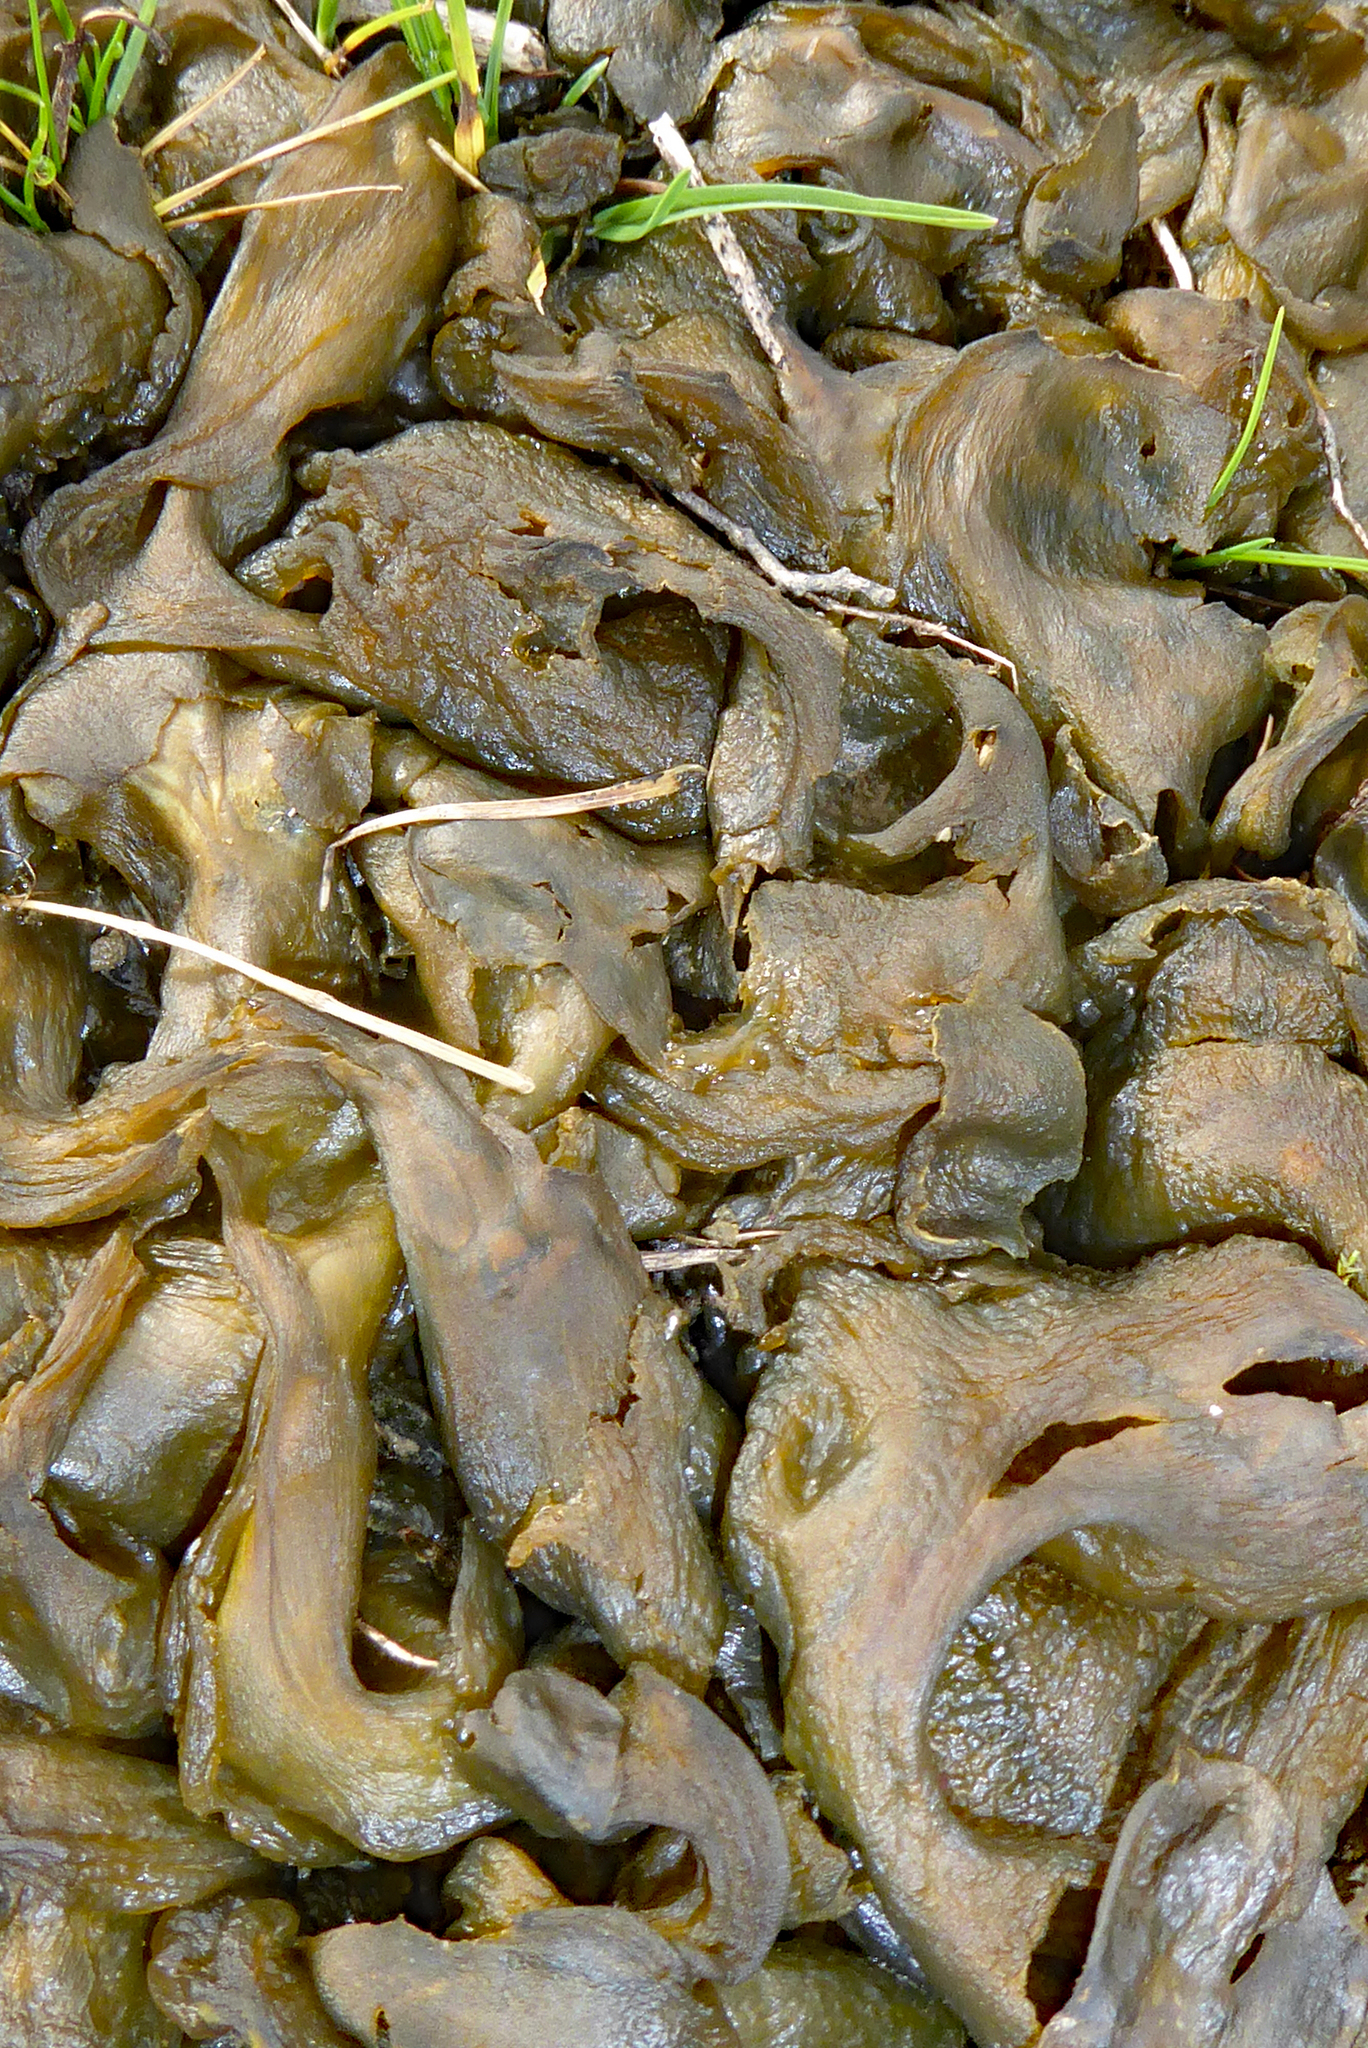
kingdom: Bacteria
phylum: Cyanobacteria
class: Cyanobacteriia
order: Cyanobacteriales
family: Nostocaceae
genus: Nostoc
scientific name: Nostoc commune
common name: Star jelly
